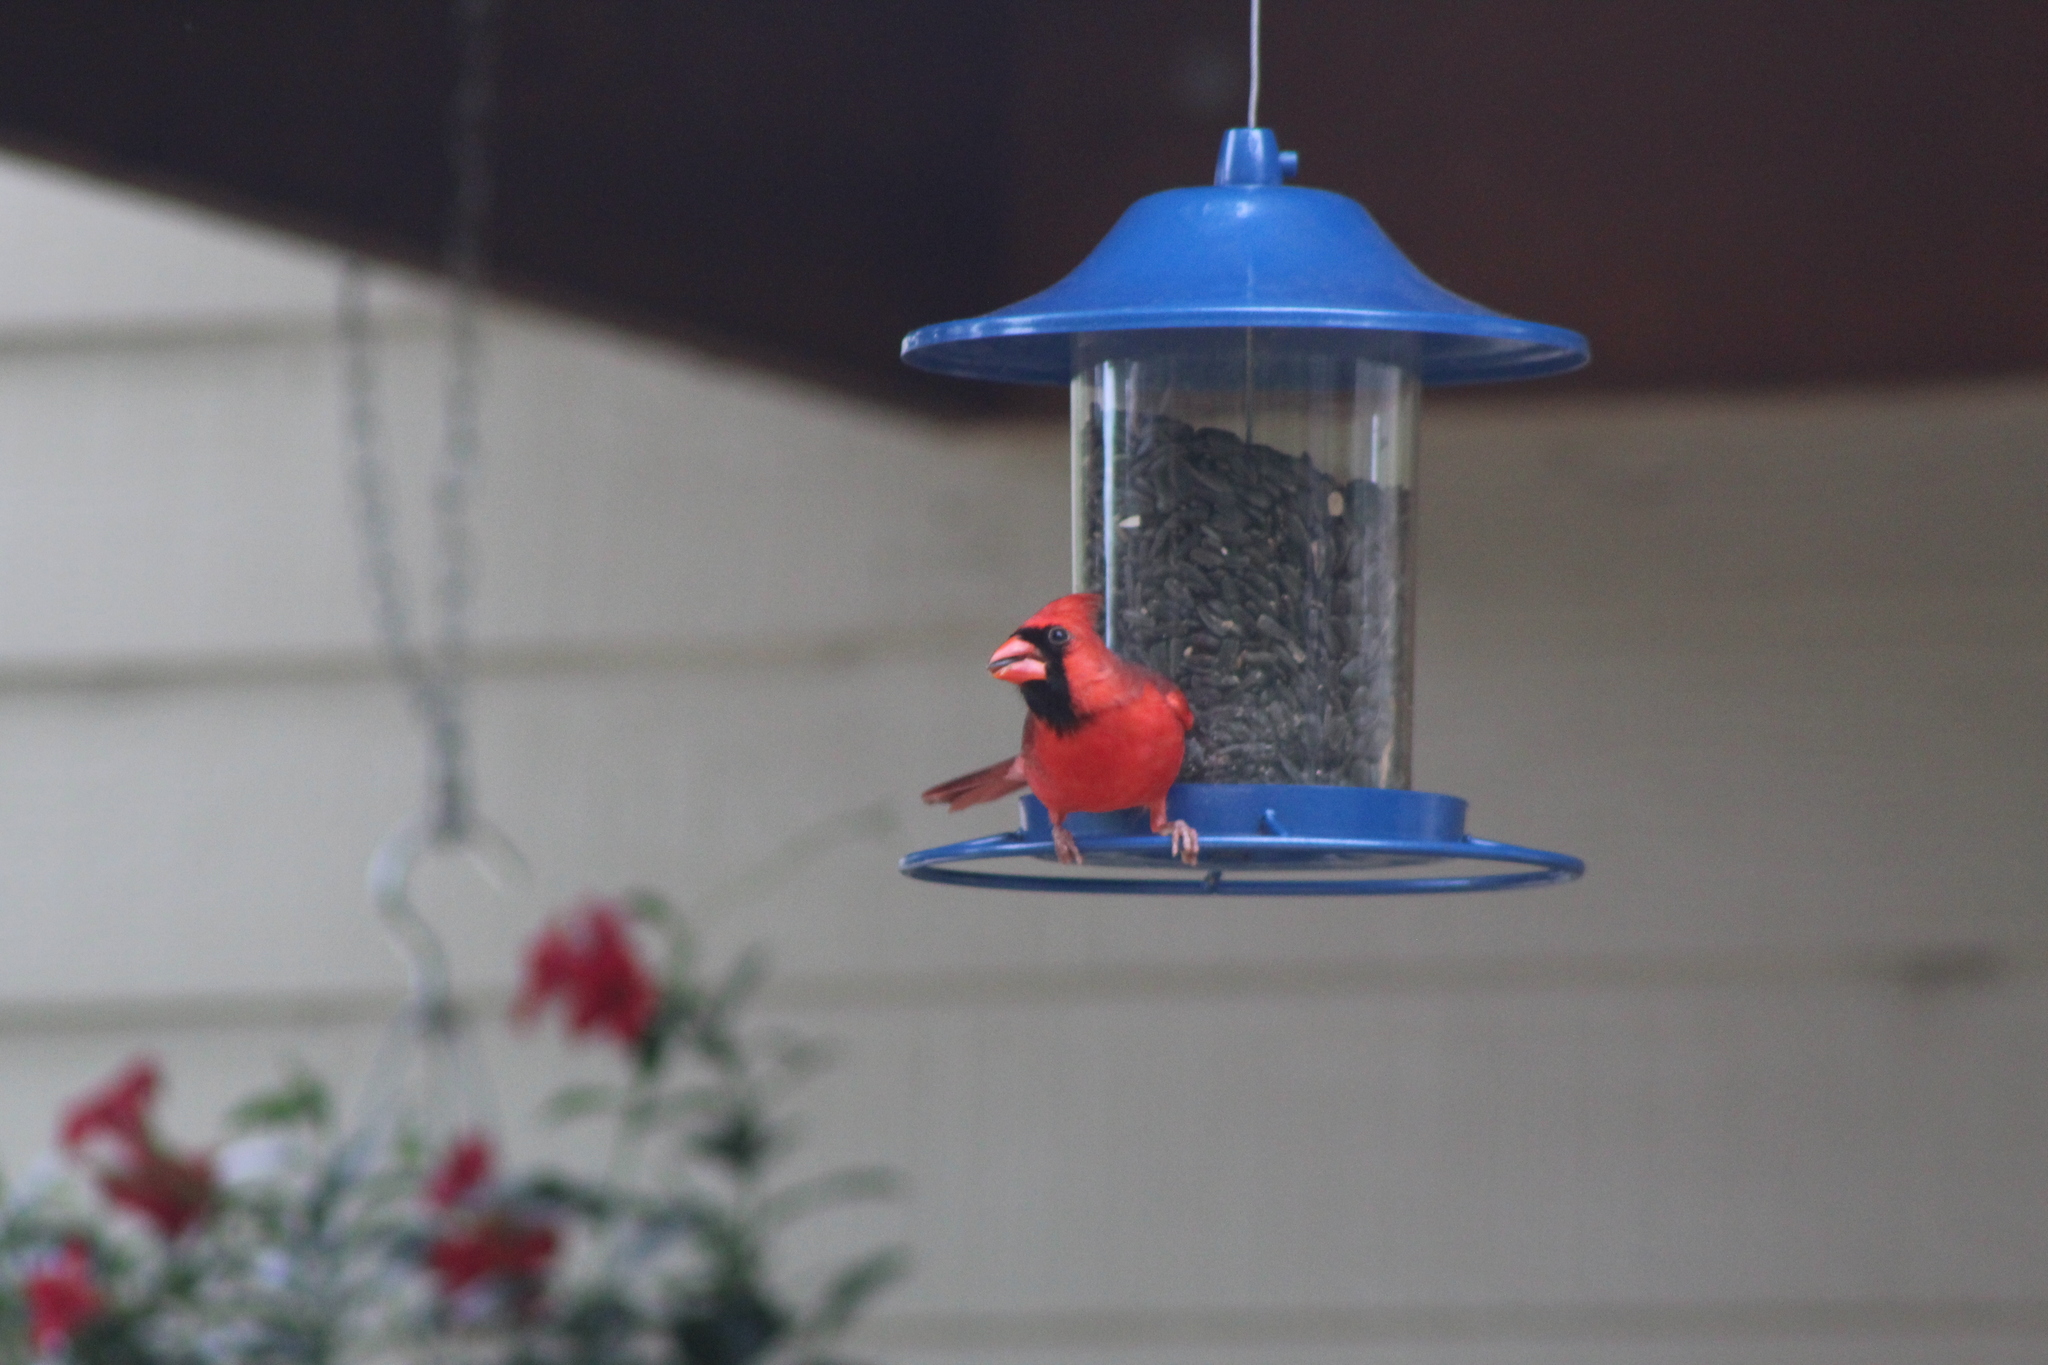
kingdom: Animalia
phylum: Chordata
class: Aves
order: Passeriformes
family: Cardinalidae
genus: Cardinalis
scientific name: Cardinalis cardinalis
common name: Northern cardinal
